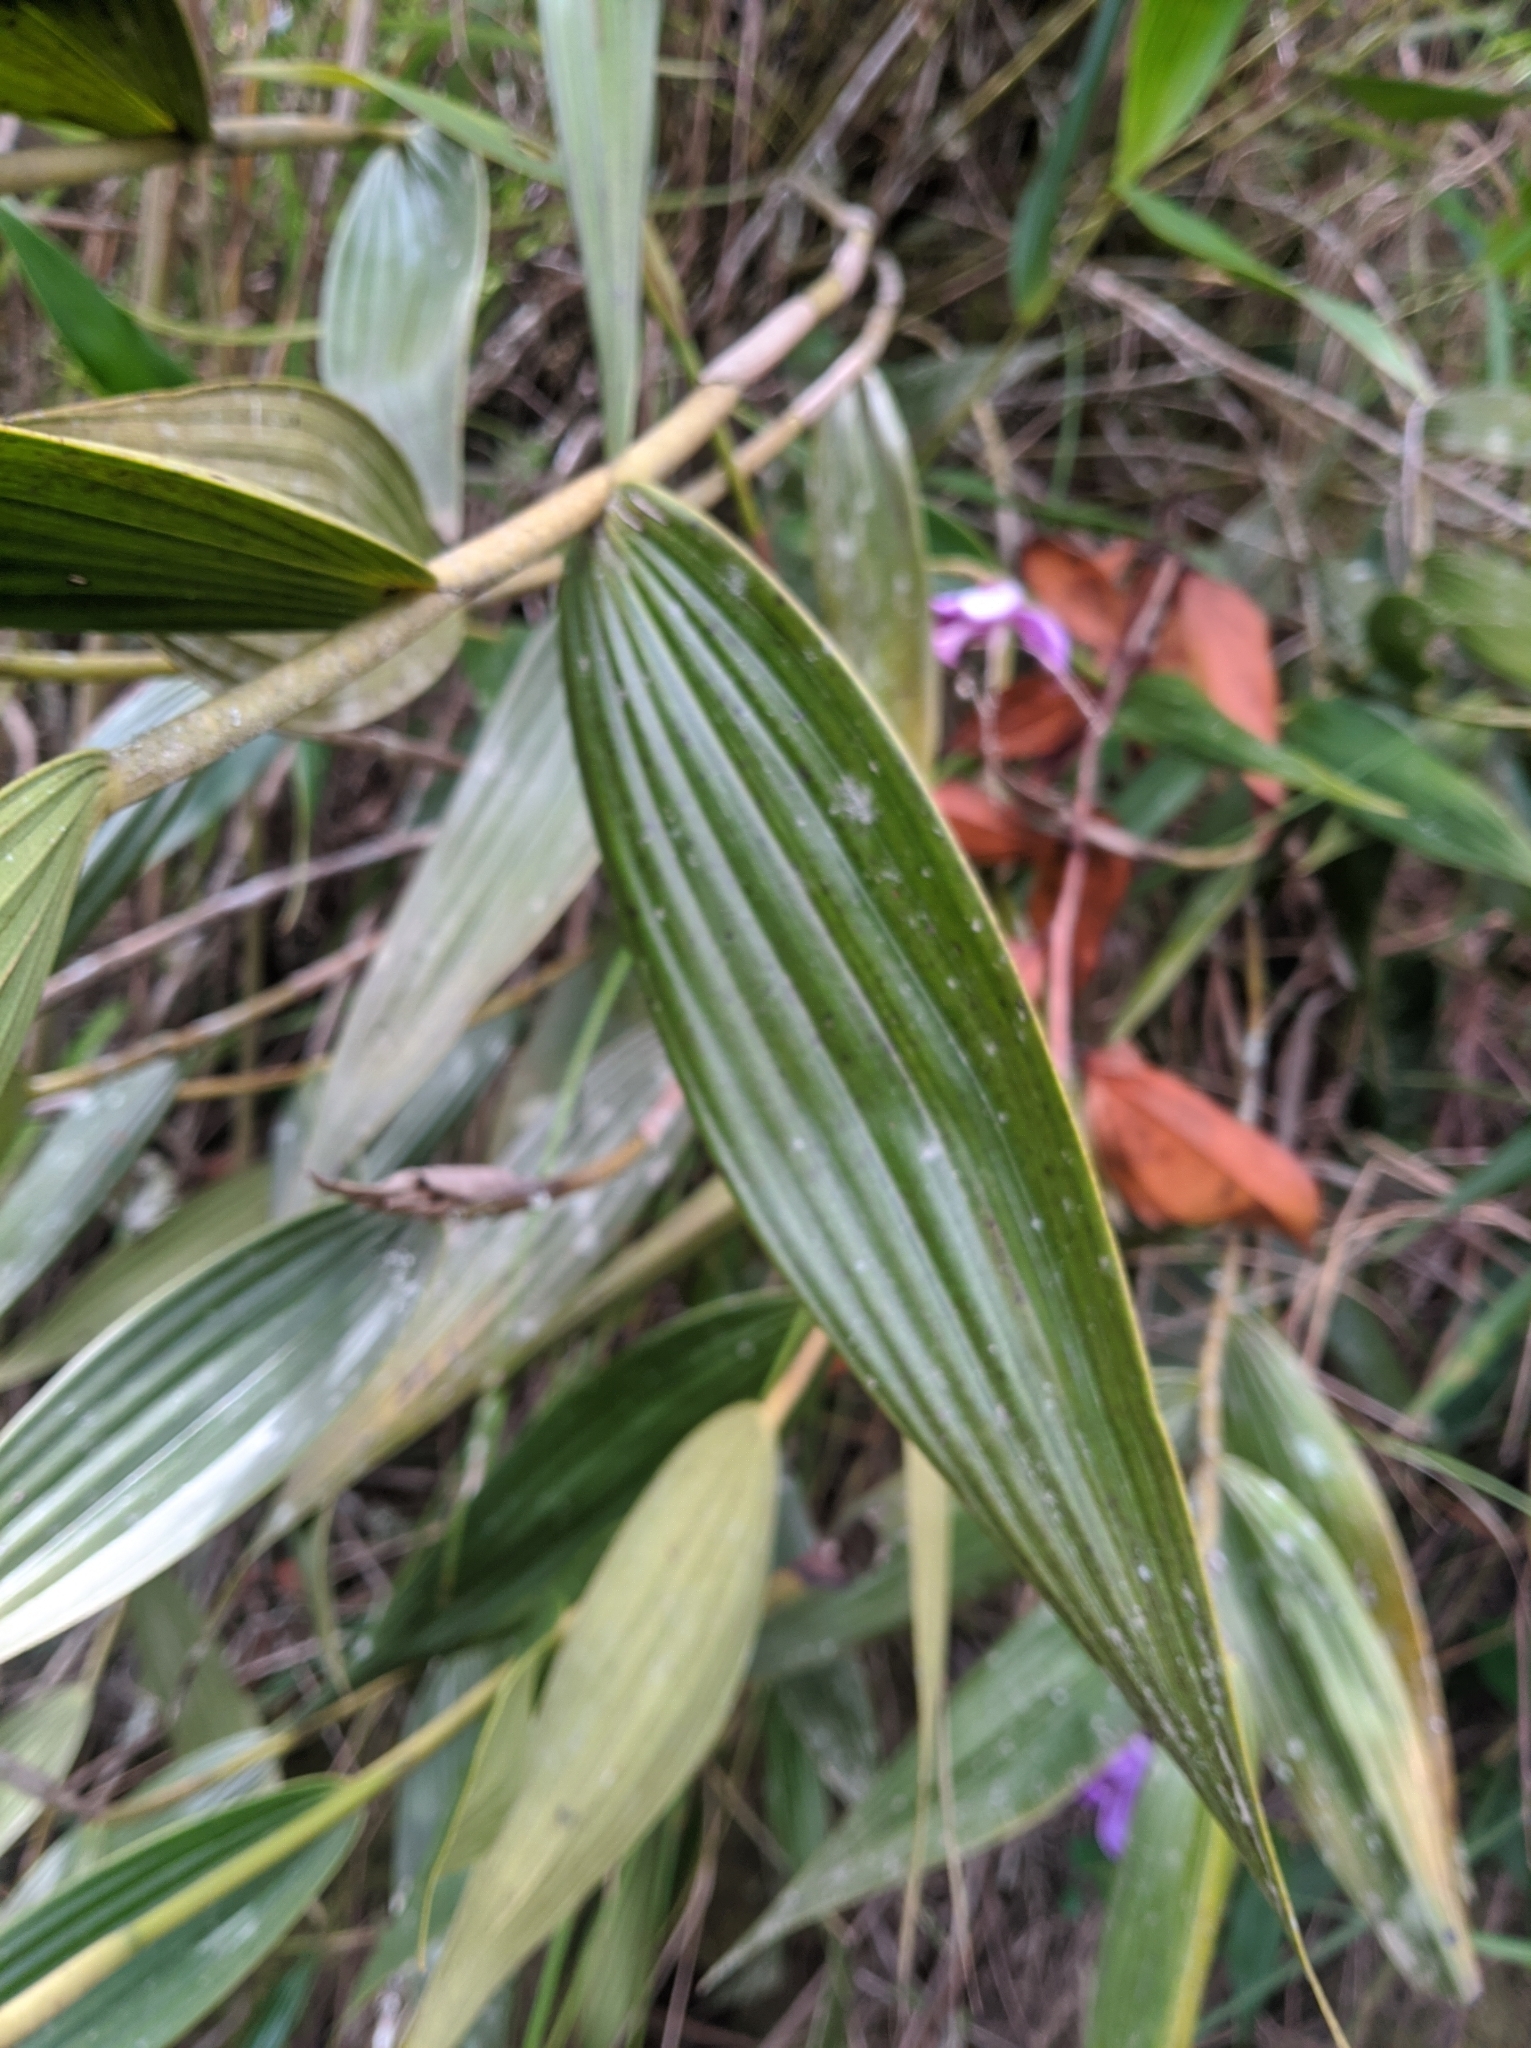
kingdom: Plantae
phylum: Tracheophyta
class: Liliopsida
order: Asparagales
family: Orchidaceae
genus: Sobralia
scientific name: Sobralia violacea
